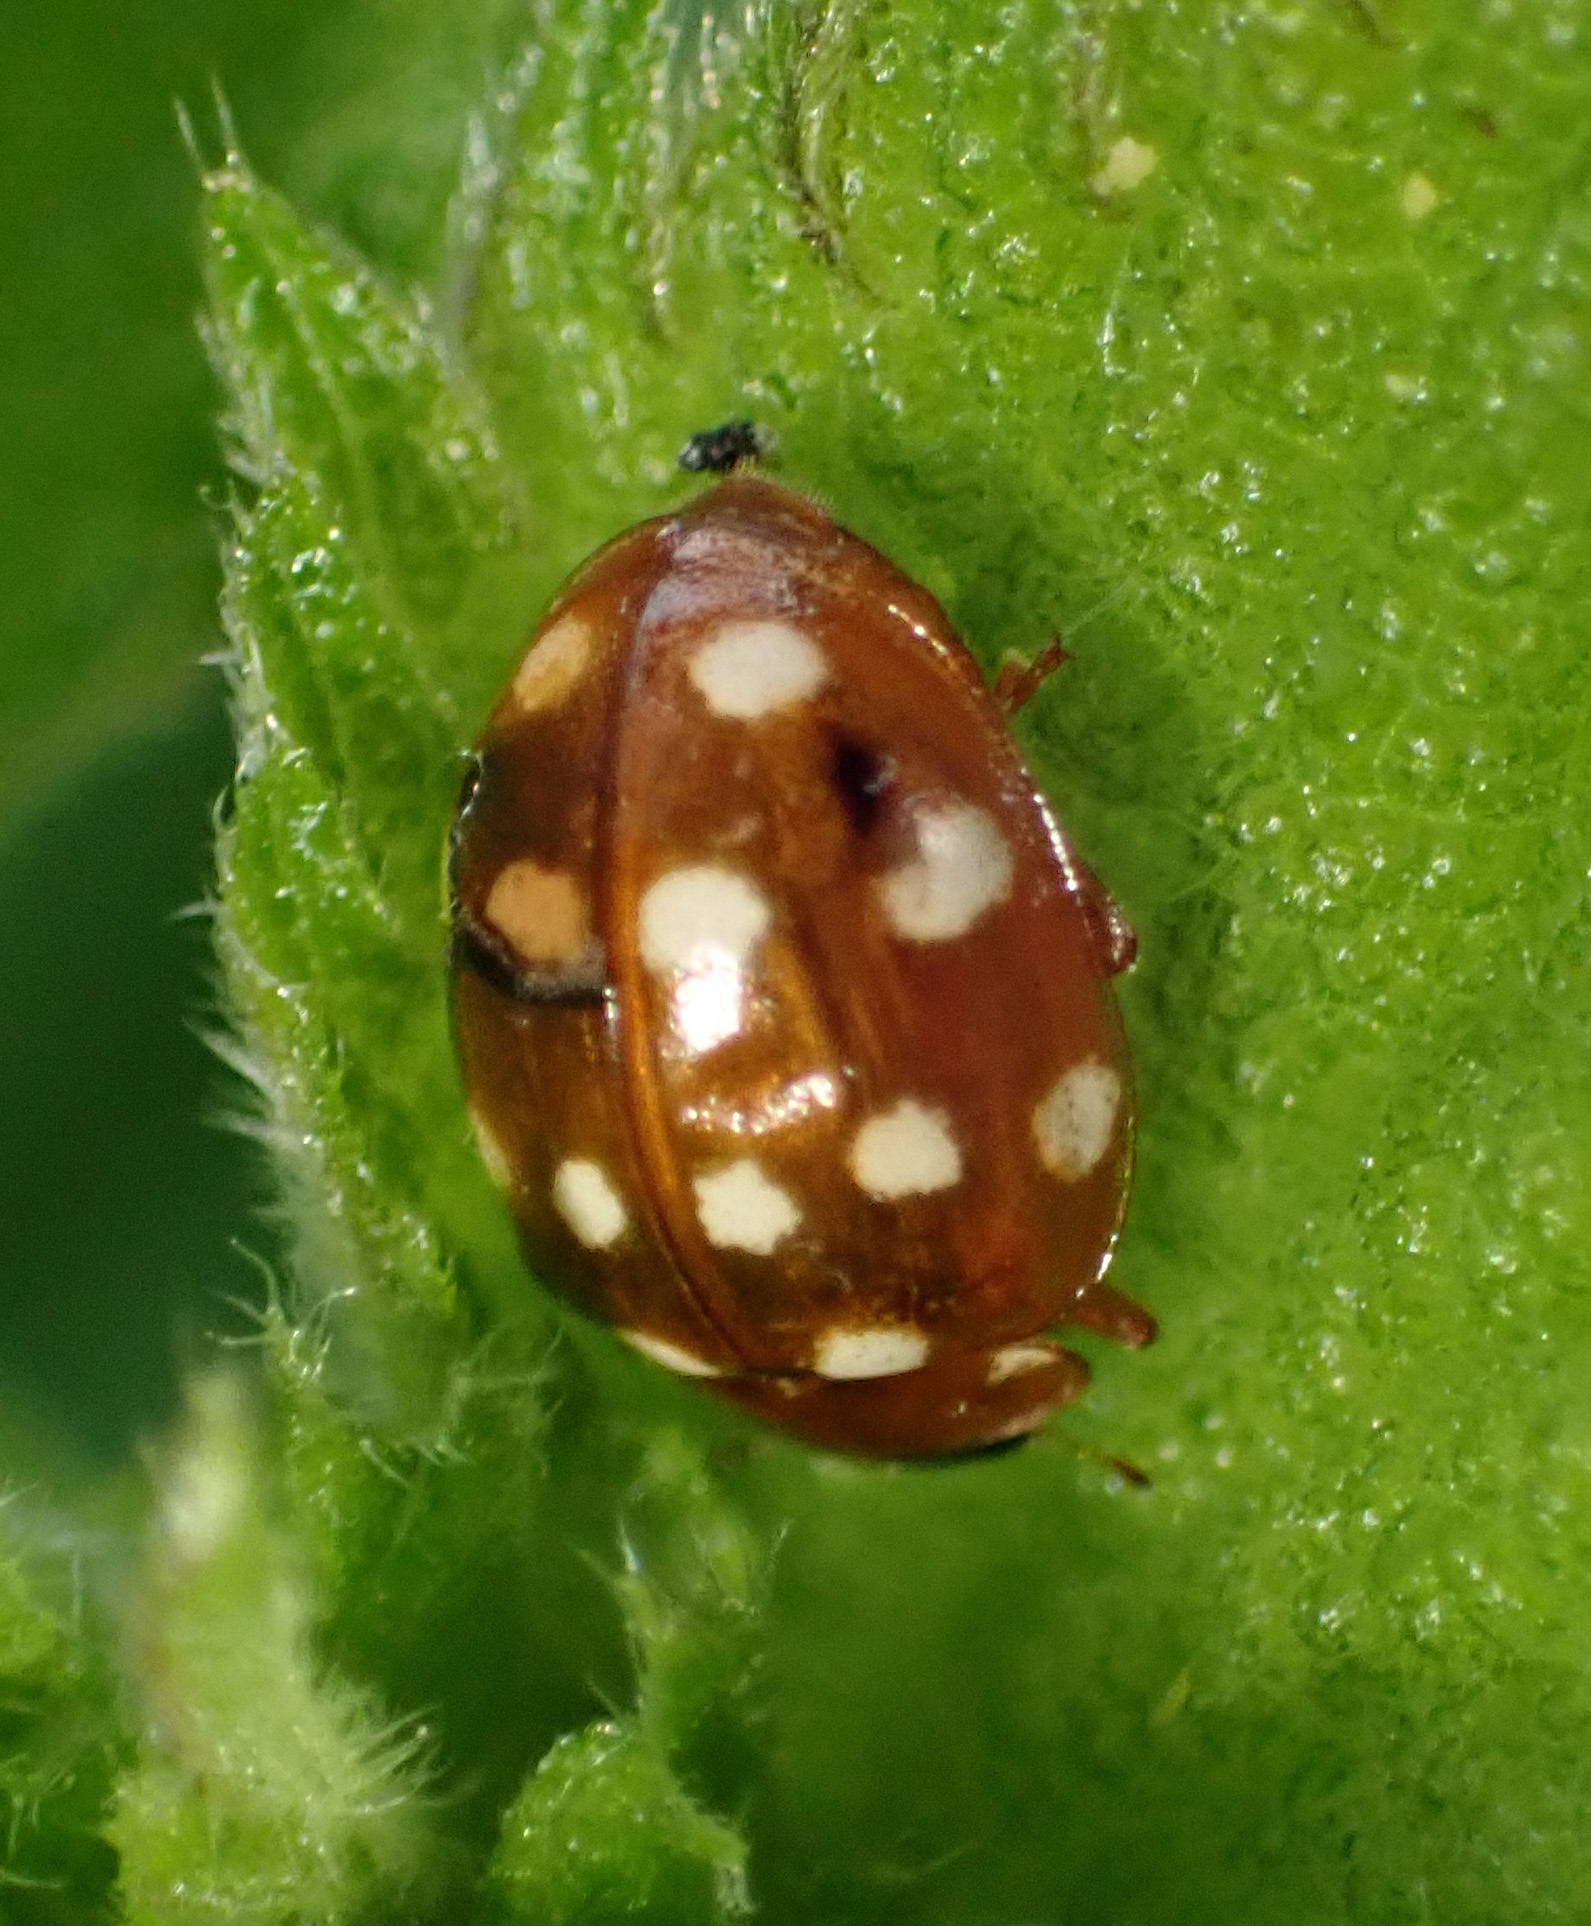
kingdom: Animalia
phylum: Arthropoda
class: Insecta
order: Coleoptera
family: Coccinellidae
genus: Calvia
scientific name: Calvia quatuordecimguttata
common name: Cream-spot ladybird
